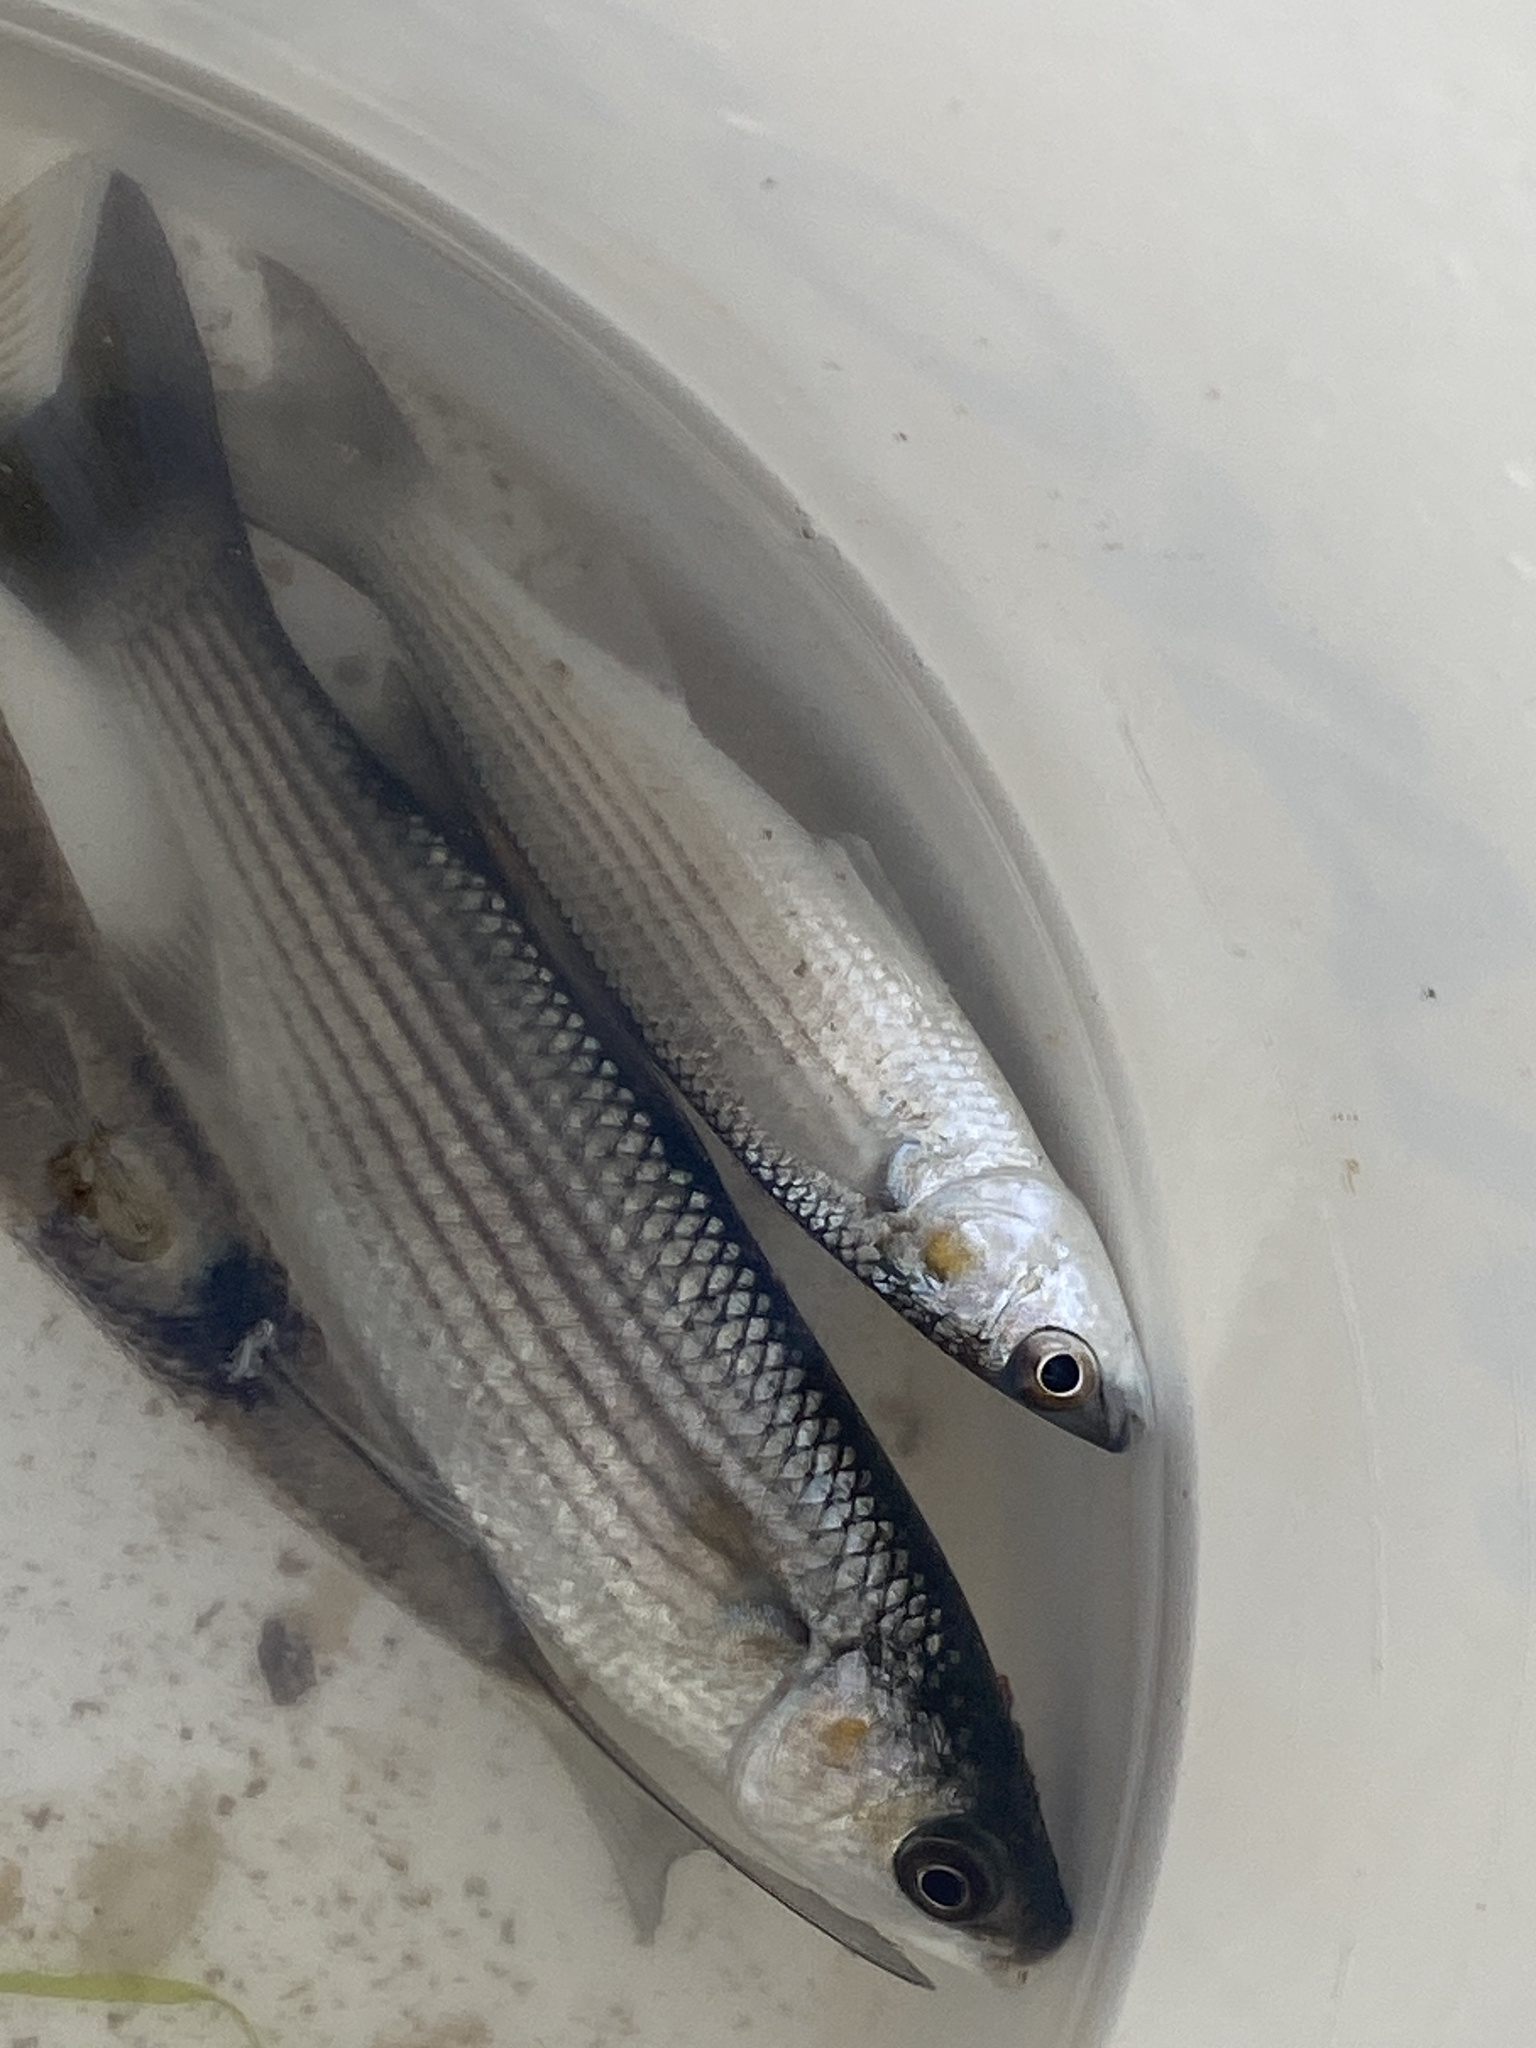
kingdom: Animalia
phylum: Chordata
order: Mugiliformes
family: Mugilidae
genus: Chelon
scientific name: Chelon labrosus
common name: Thick-lipped mullet
